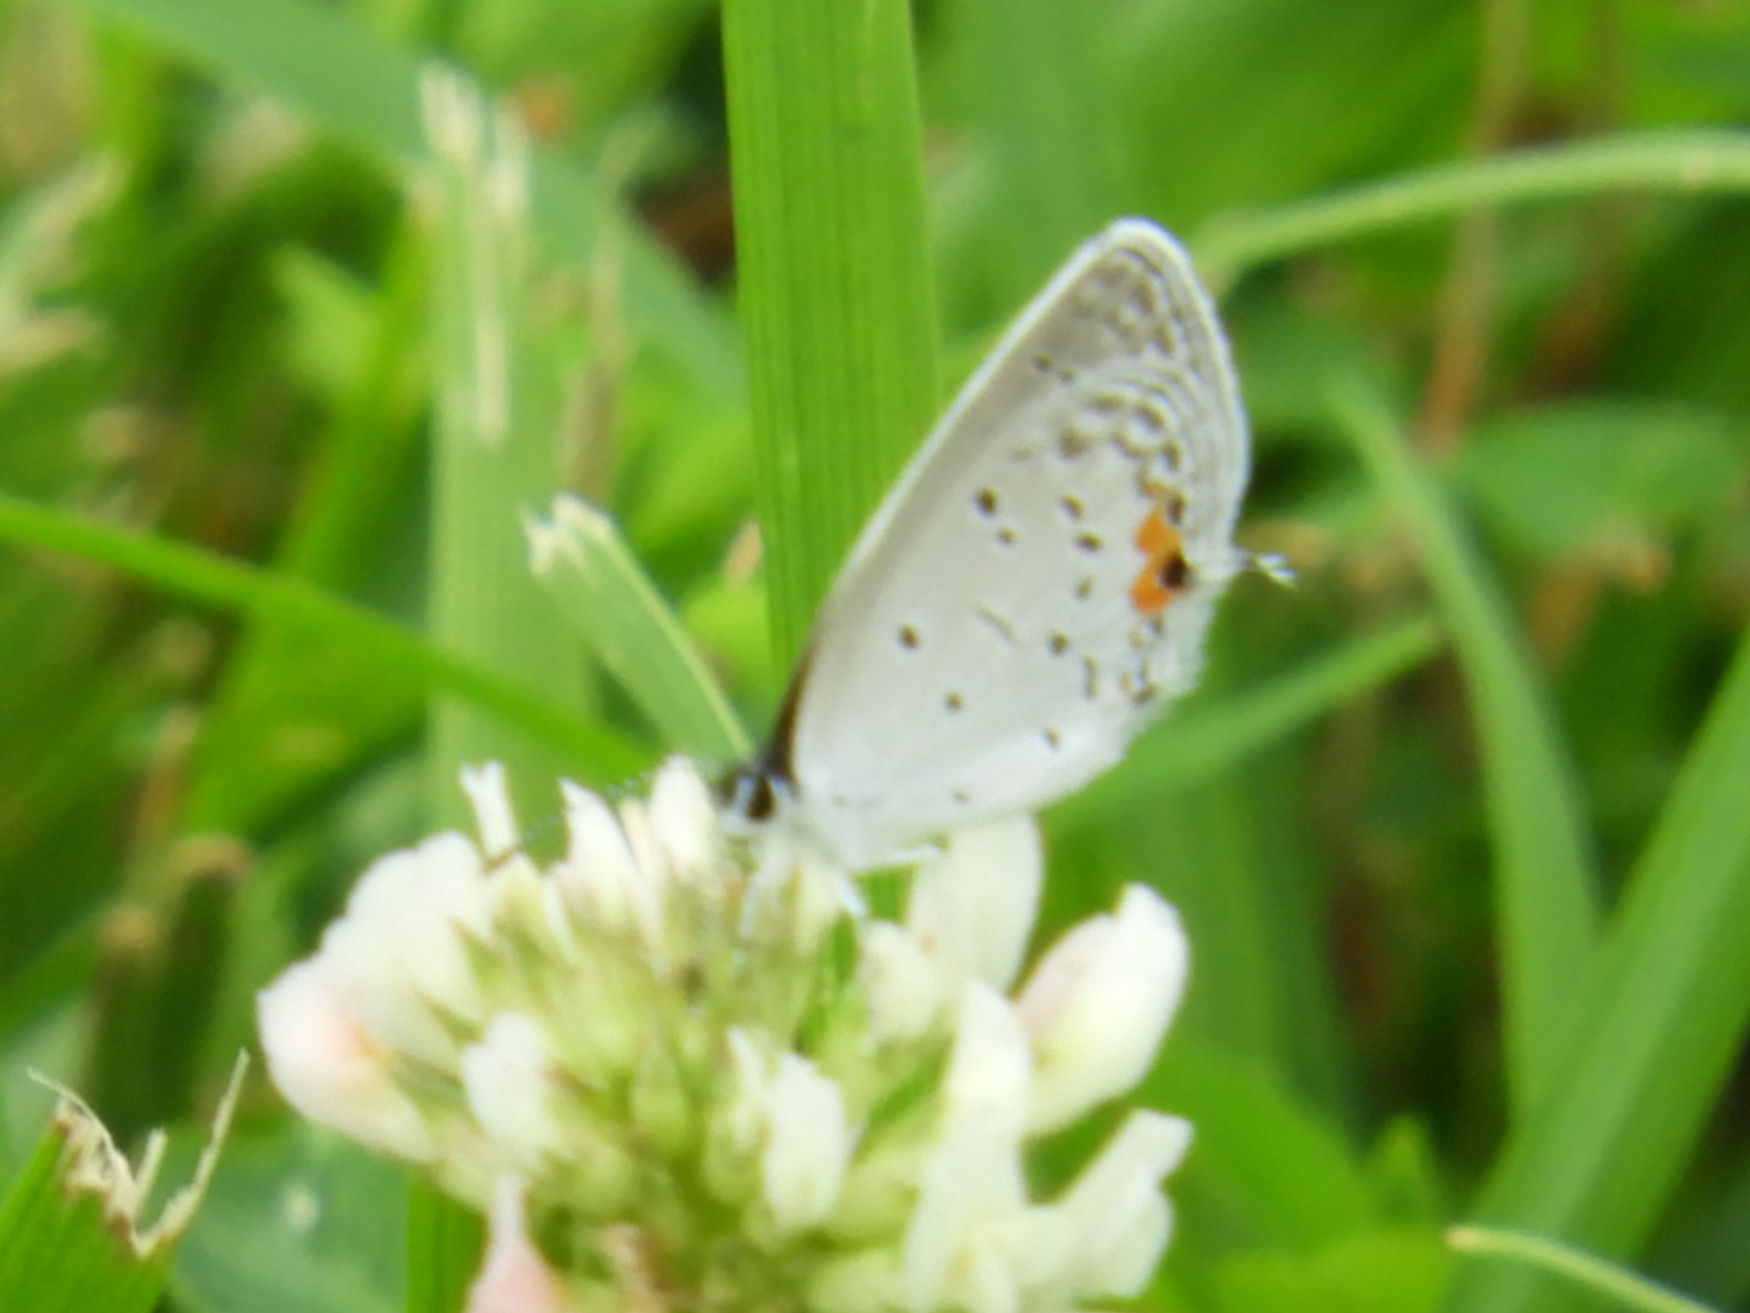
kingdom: Animalia
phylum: Arthropoda
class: Insecta
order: Lepidoptera
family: Lycaenidae
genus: Elkalyce
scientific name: Elkalyce comyntas
